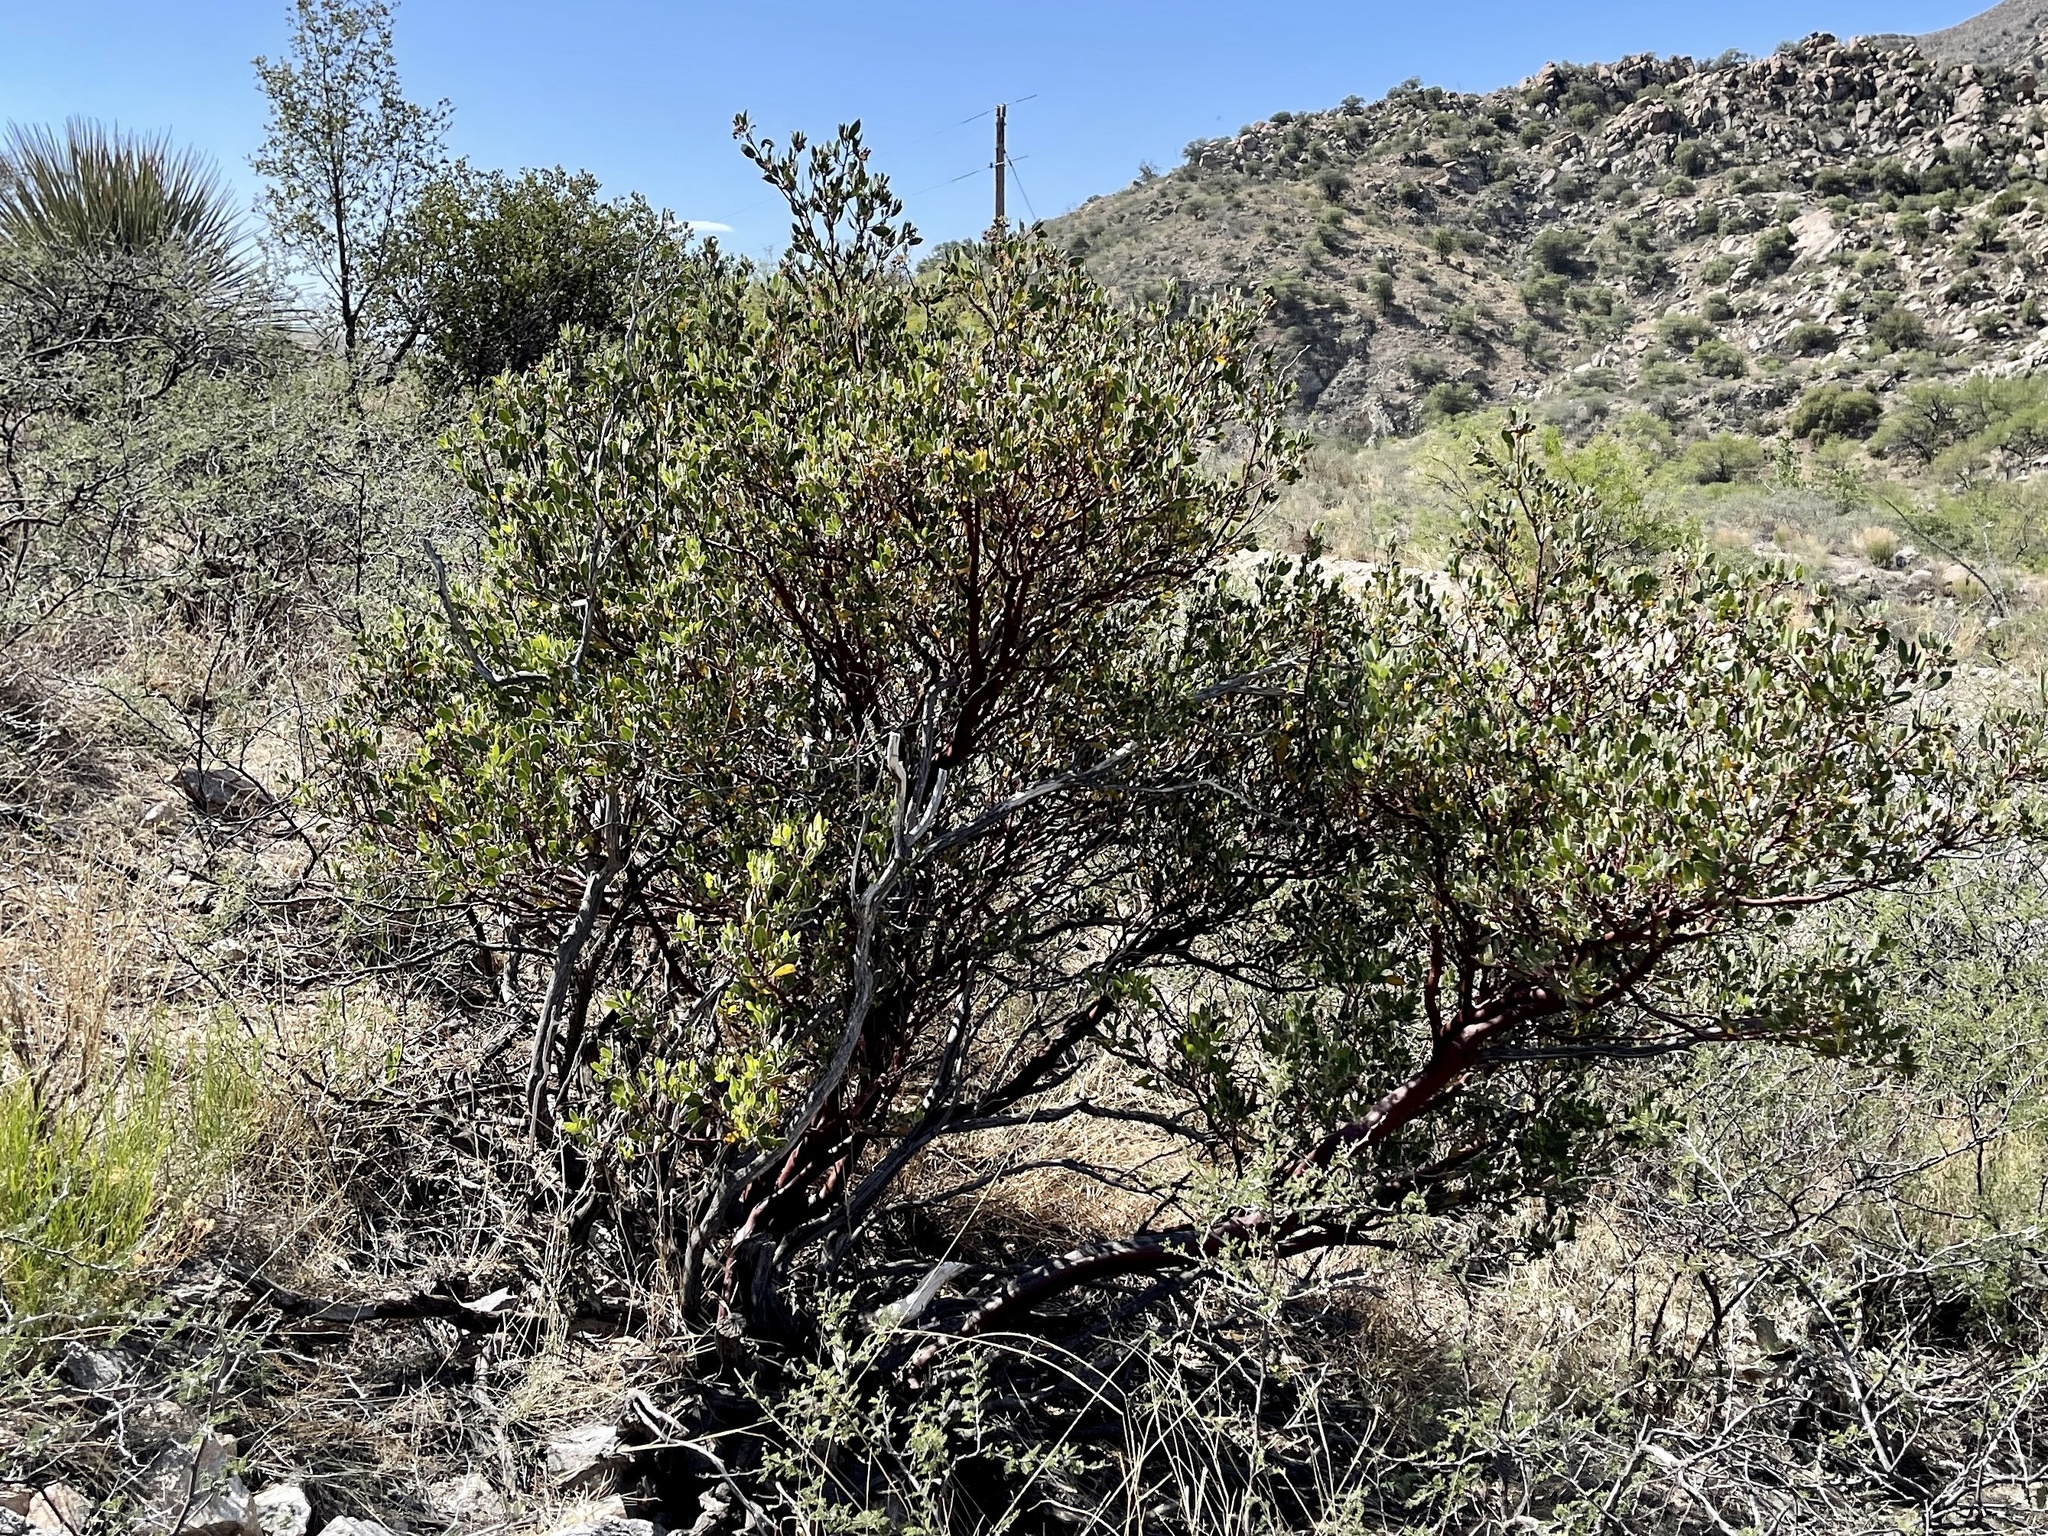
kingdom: Plantae
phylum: Tracheophyta
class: Magnoliopsida
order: Ericales
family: Ericaceae
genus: Arctostaphylos
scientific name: Arctostaphylos pungens
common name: Mexican manzanita
